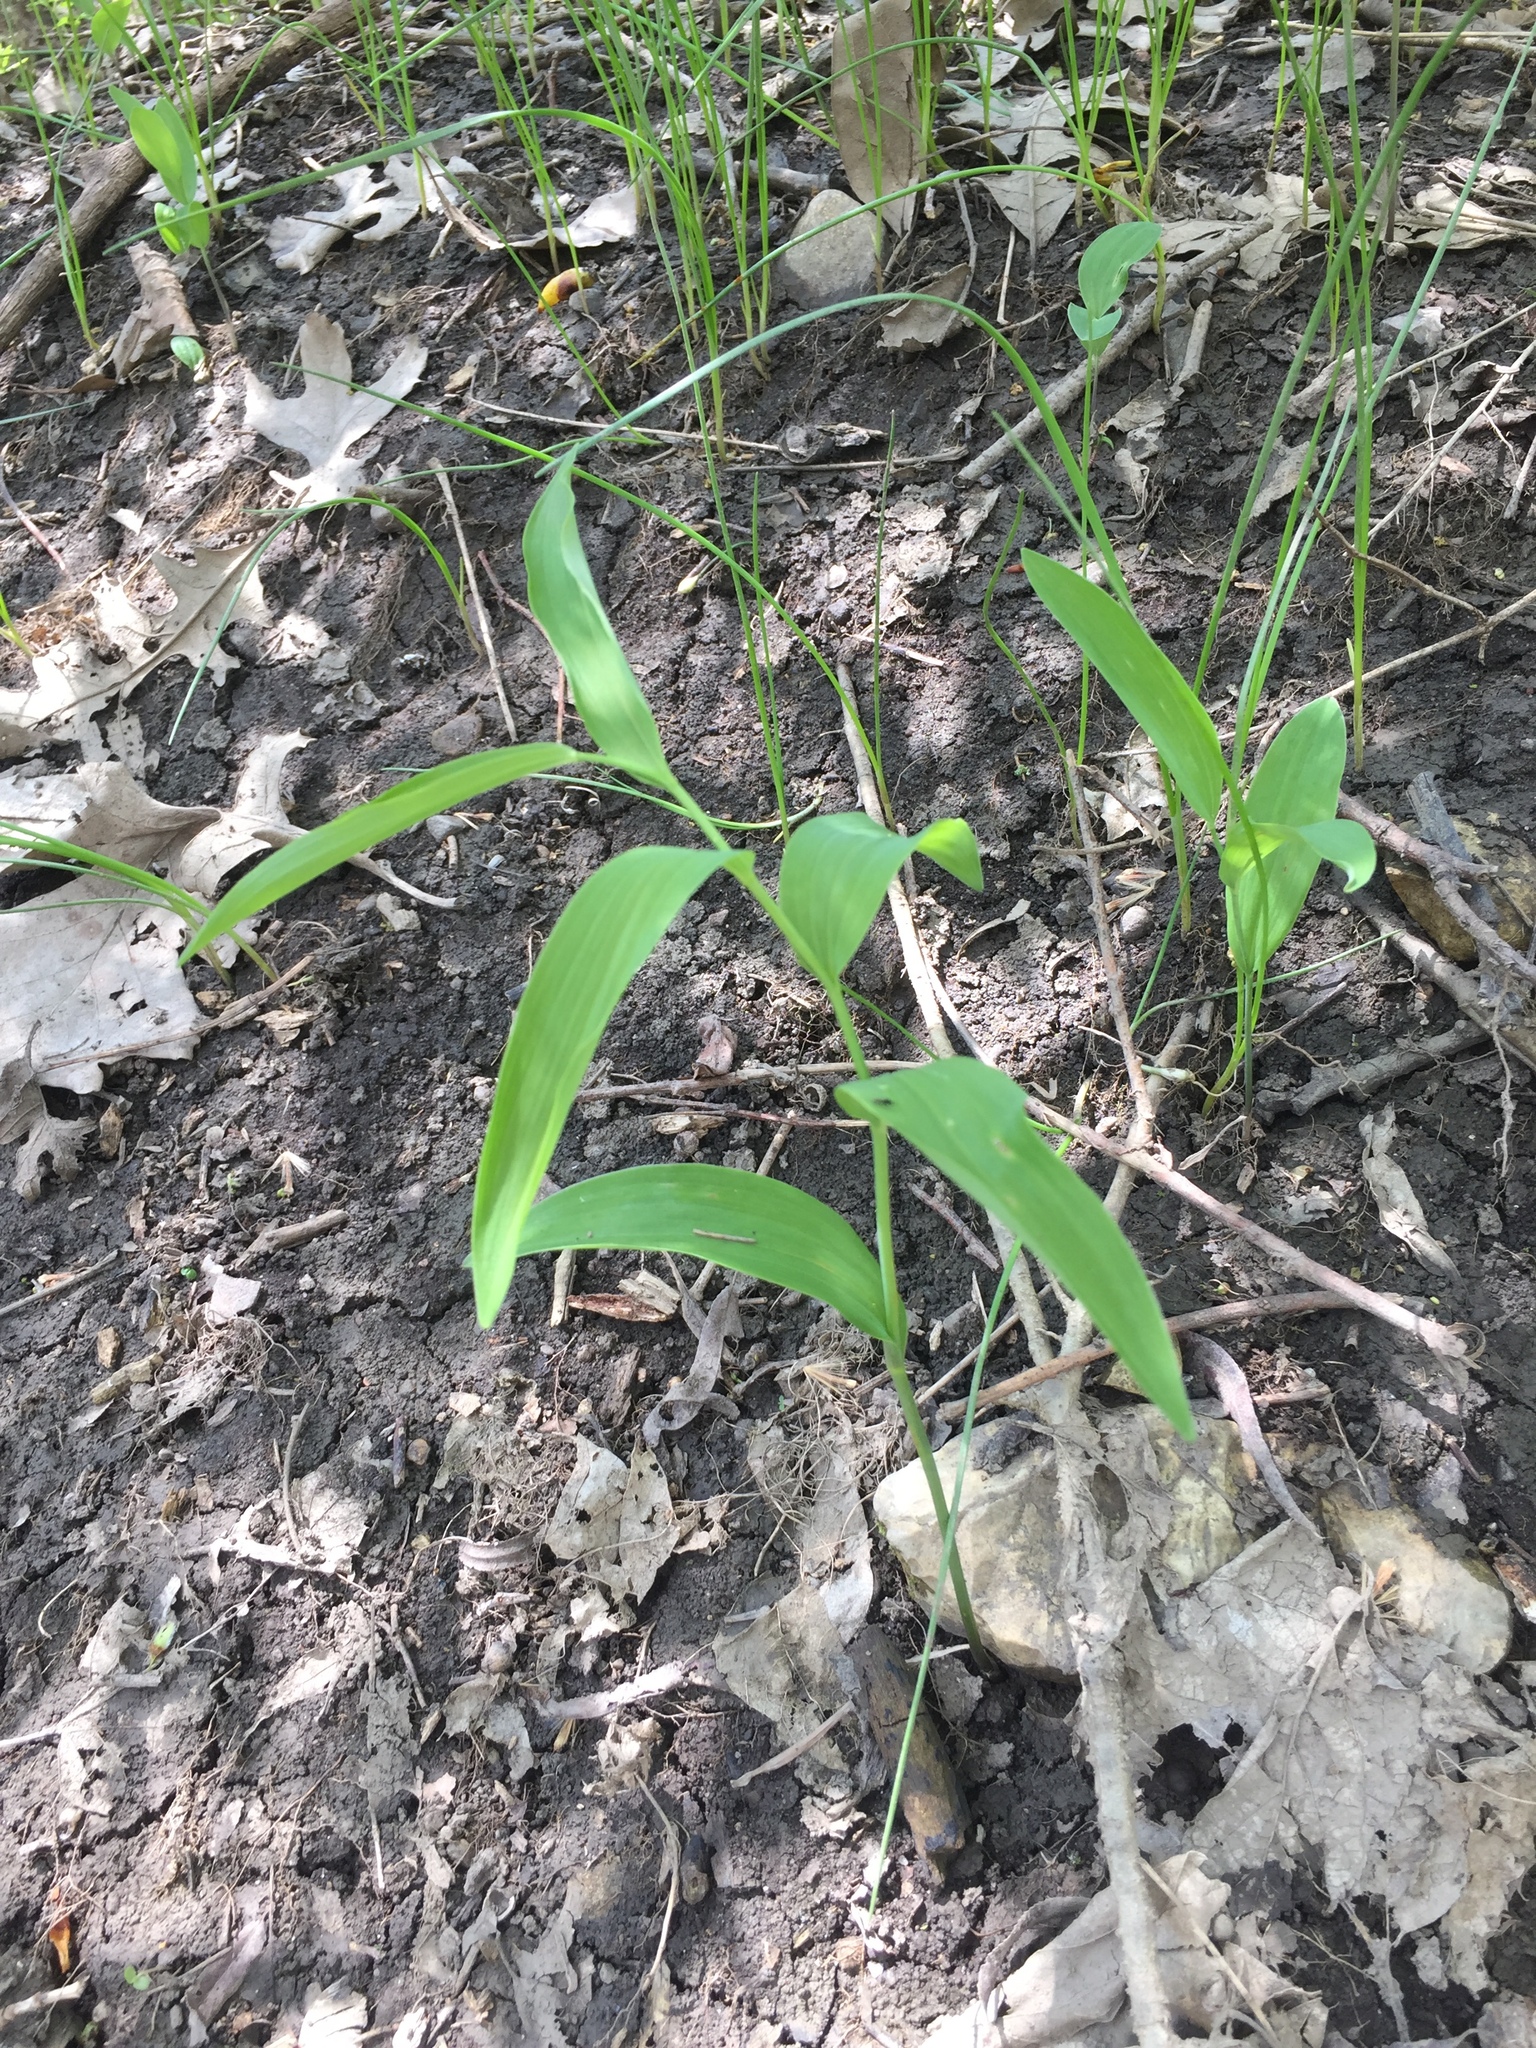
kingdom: Plantae
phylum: Tracheophyta
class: Liliopsida
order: Asparagales
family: Asparagaceae
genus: Maianthemum
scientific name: Maianthemum stellatum
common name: Little false solomon's seal
